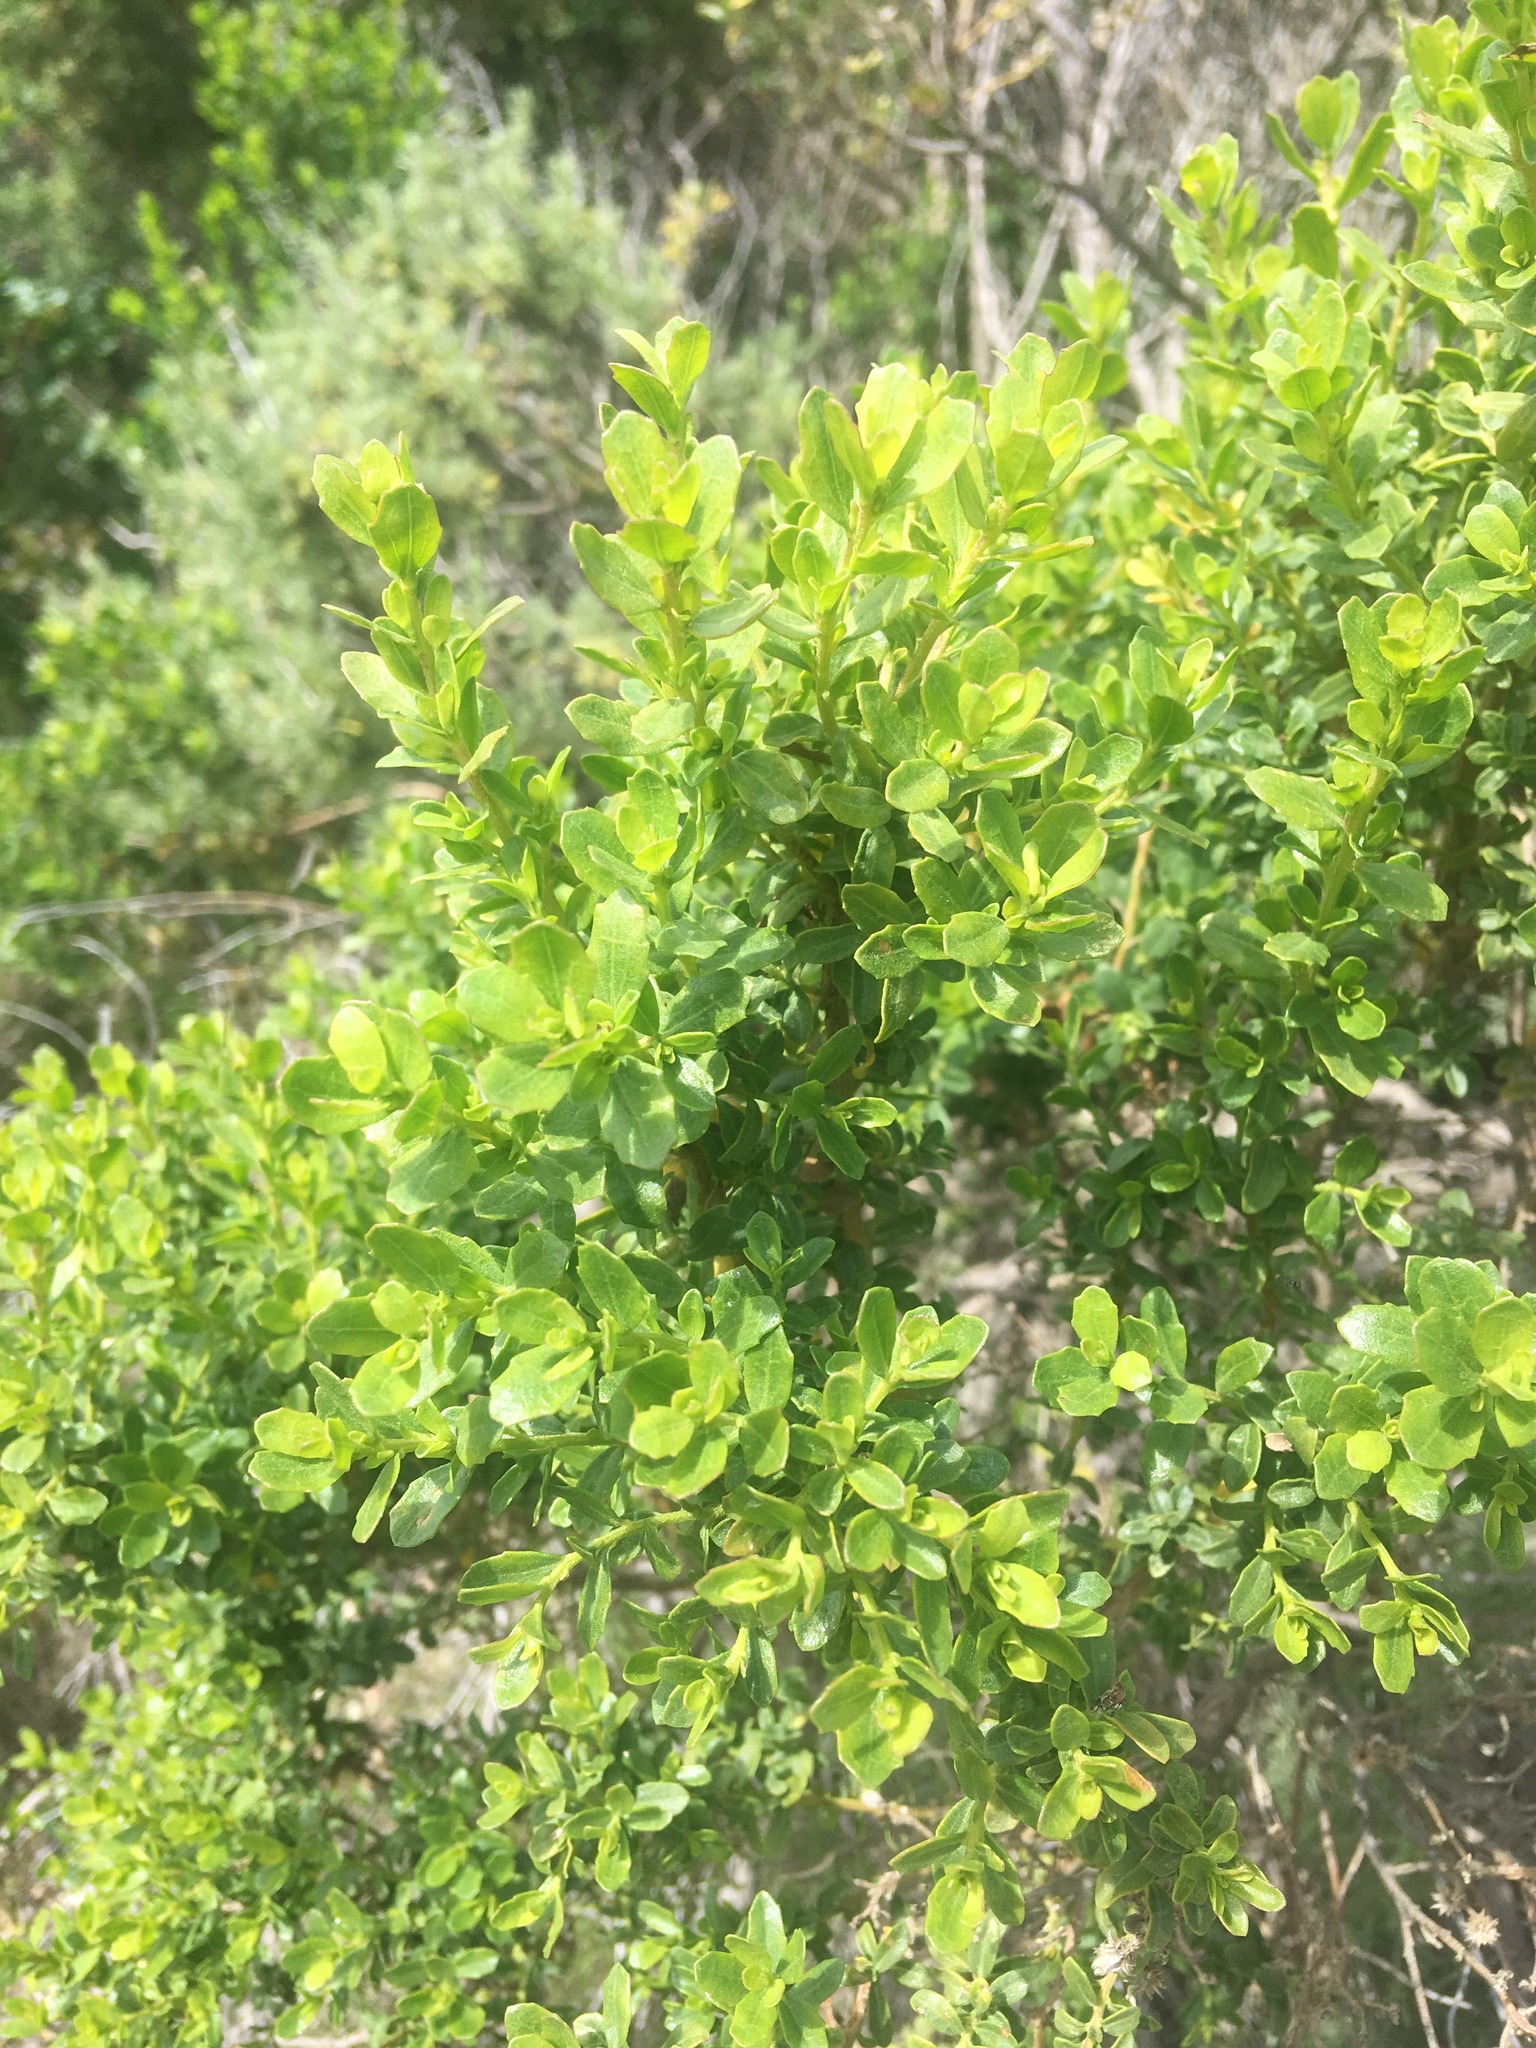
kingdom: Plantae
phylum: Tracheophyta
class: Magnoliopsida
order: Asterales
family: Asteraceae
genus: Baccharis
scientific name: Baccharis pilularis
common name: Coyotebrush
